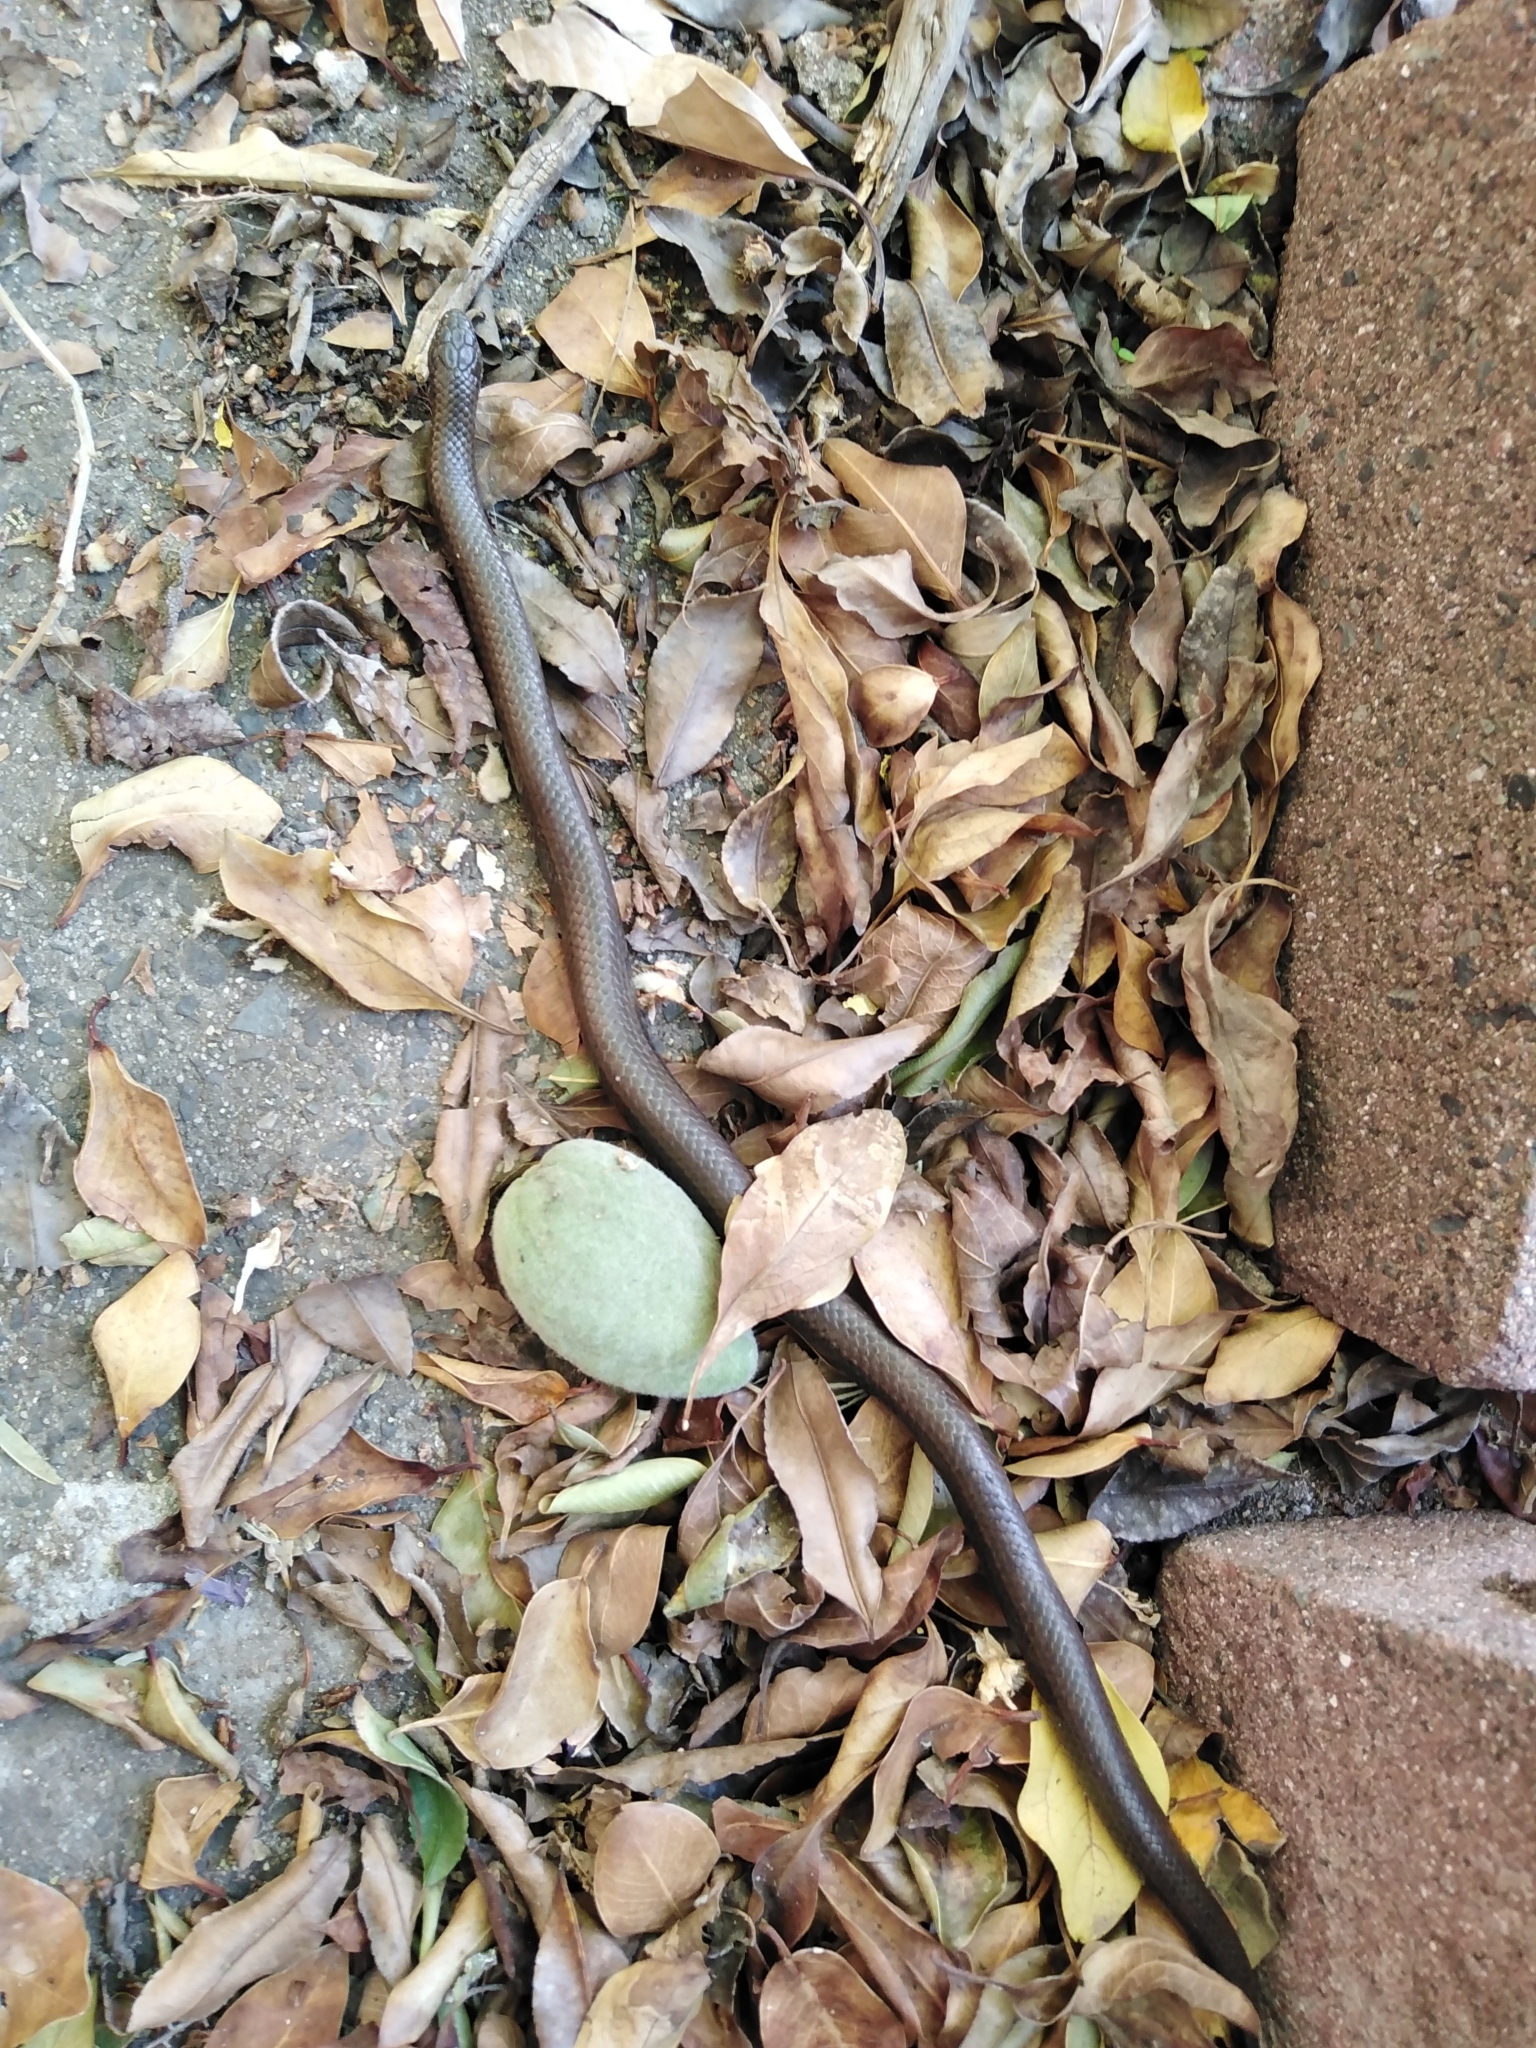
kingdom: Animalia
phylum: Chordata
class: Squamata
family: Pseudoxyrhophiidae
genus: Duberria
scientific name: Duberria lutrix
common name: Common slug eater
